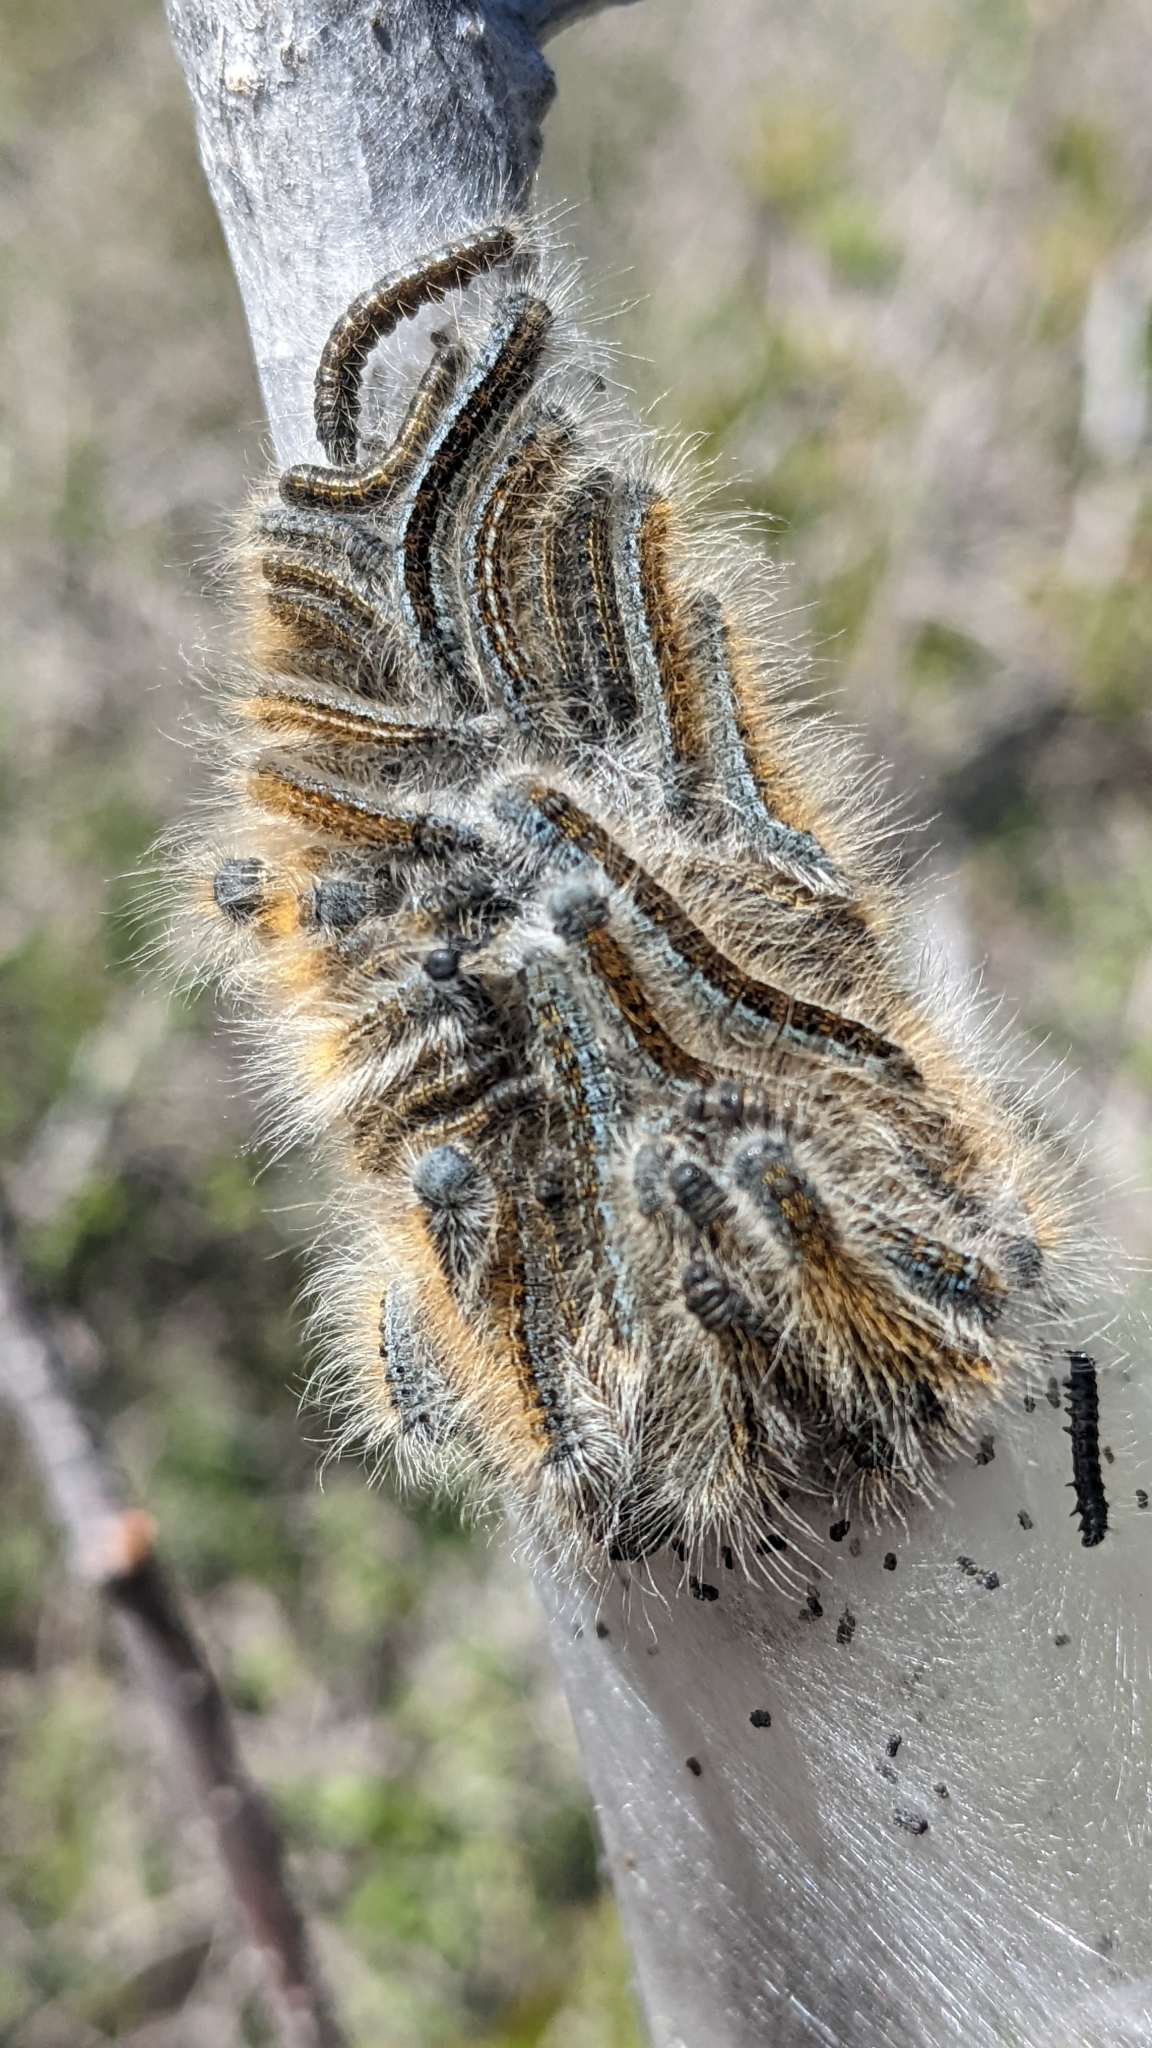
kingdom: Animalia
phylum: Arthropoda
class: Insecta
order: Lepidoptera
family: Lasiocampidae
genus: Malacosoma
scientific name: Malacosoma californica
